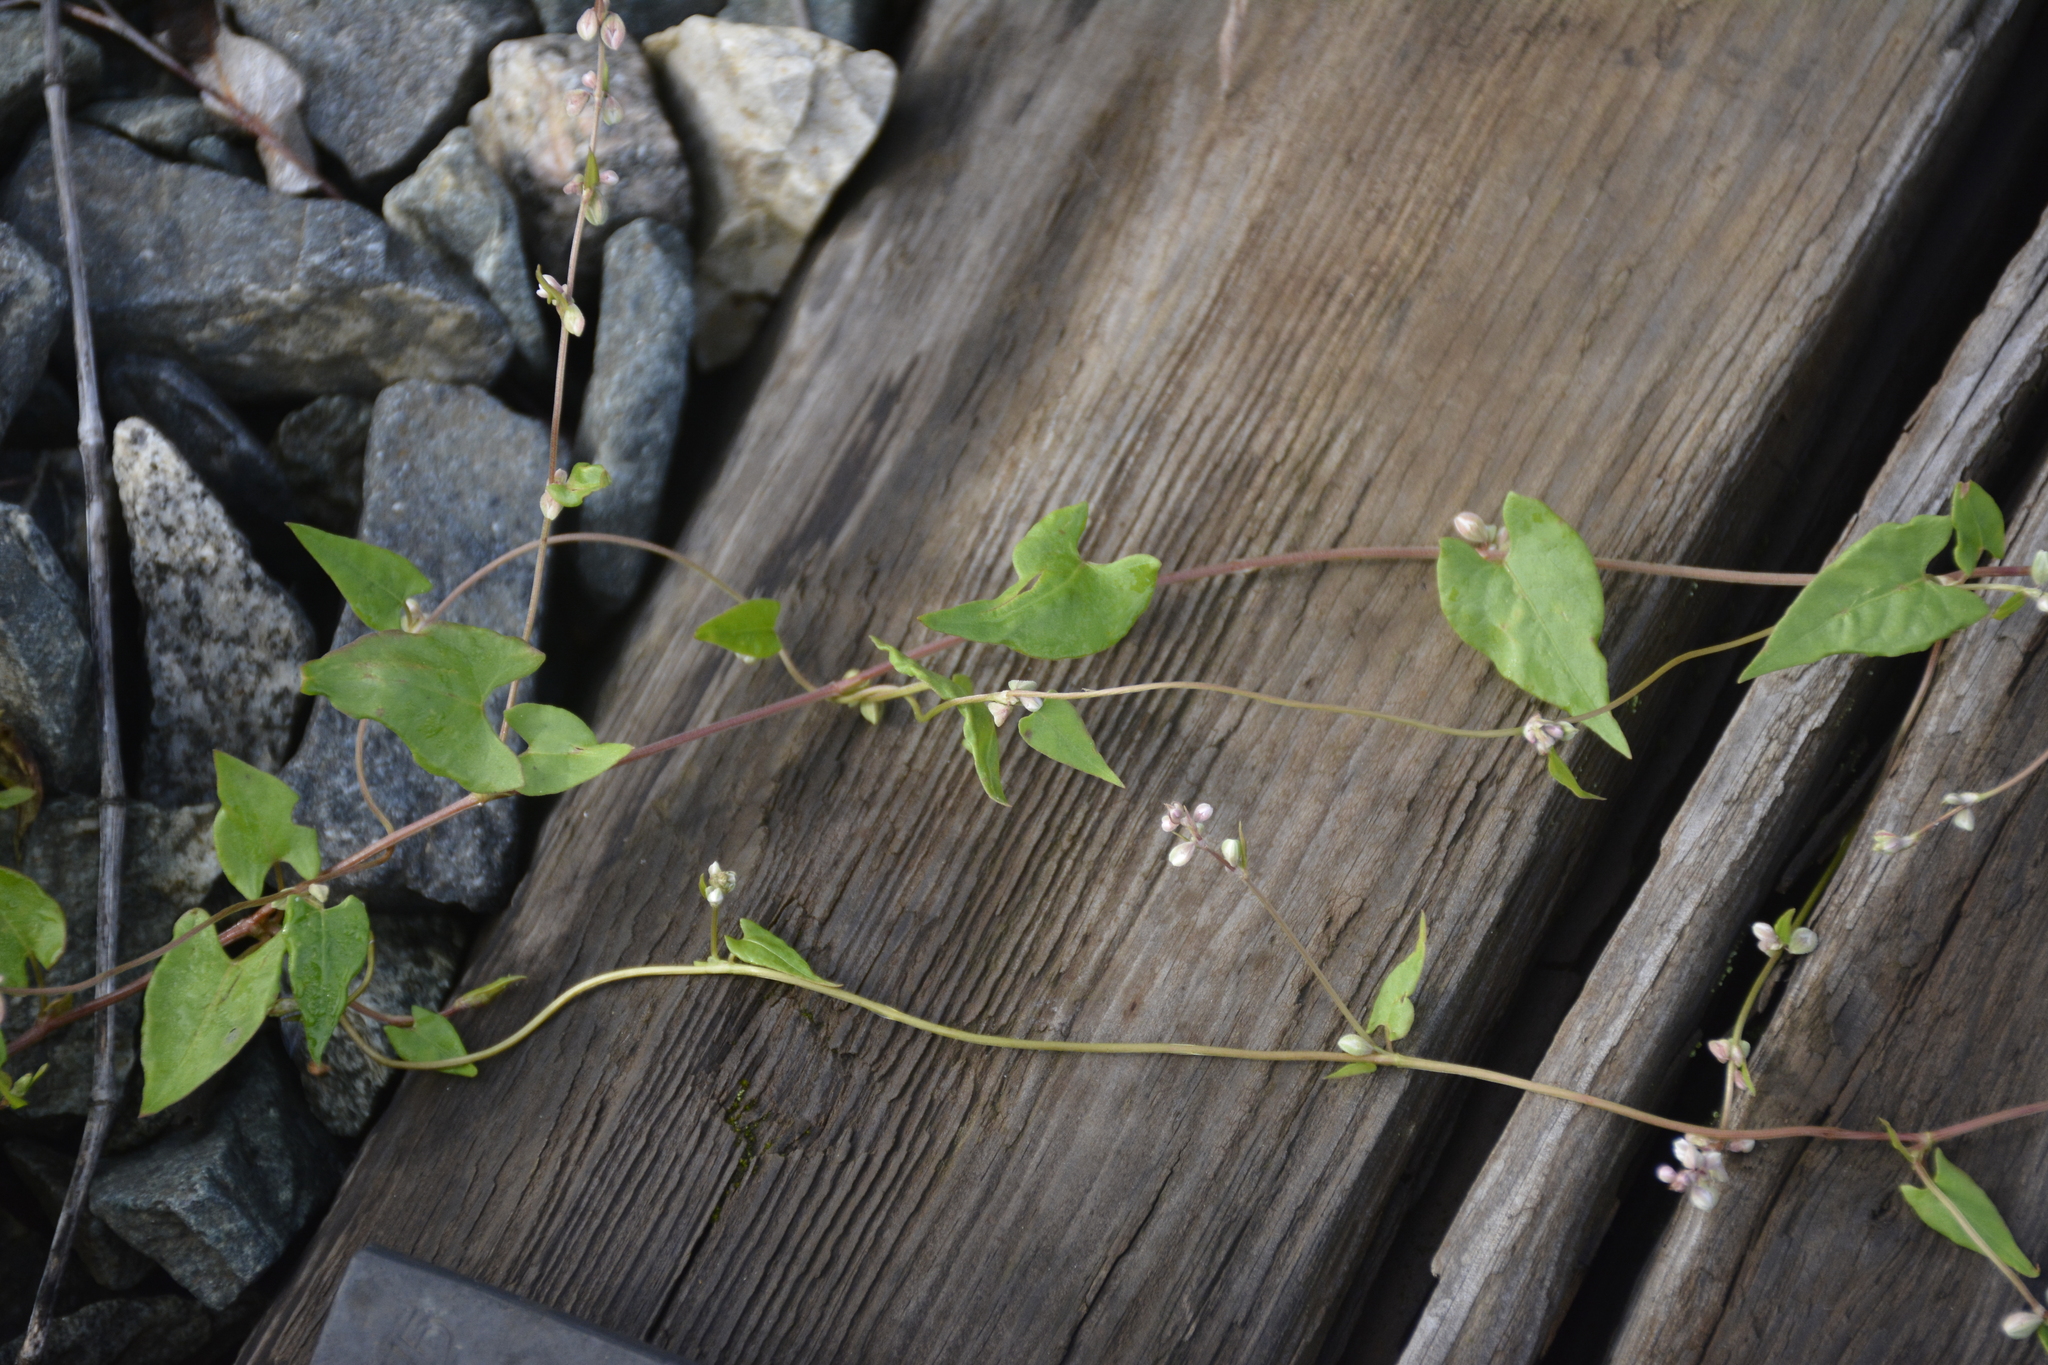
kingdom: Plantae
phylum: Tracheophyta
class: Magnoliopsida
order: Caryophyllales
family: Polygonaceae
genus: Fallopia
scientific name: Fallopia convolvulus
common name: Black bindweed
